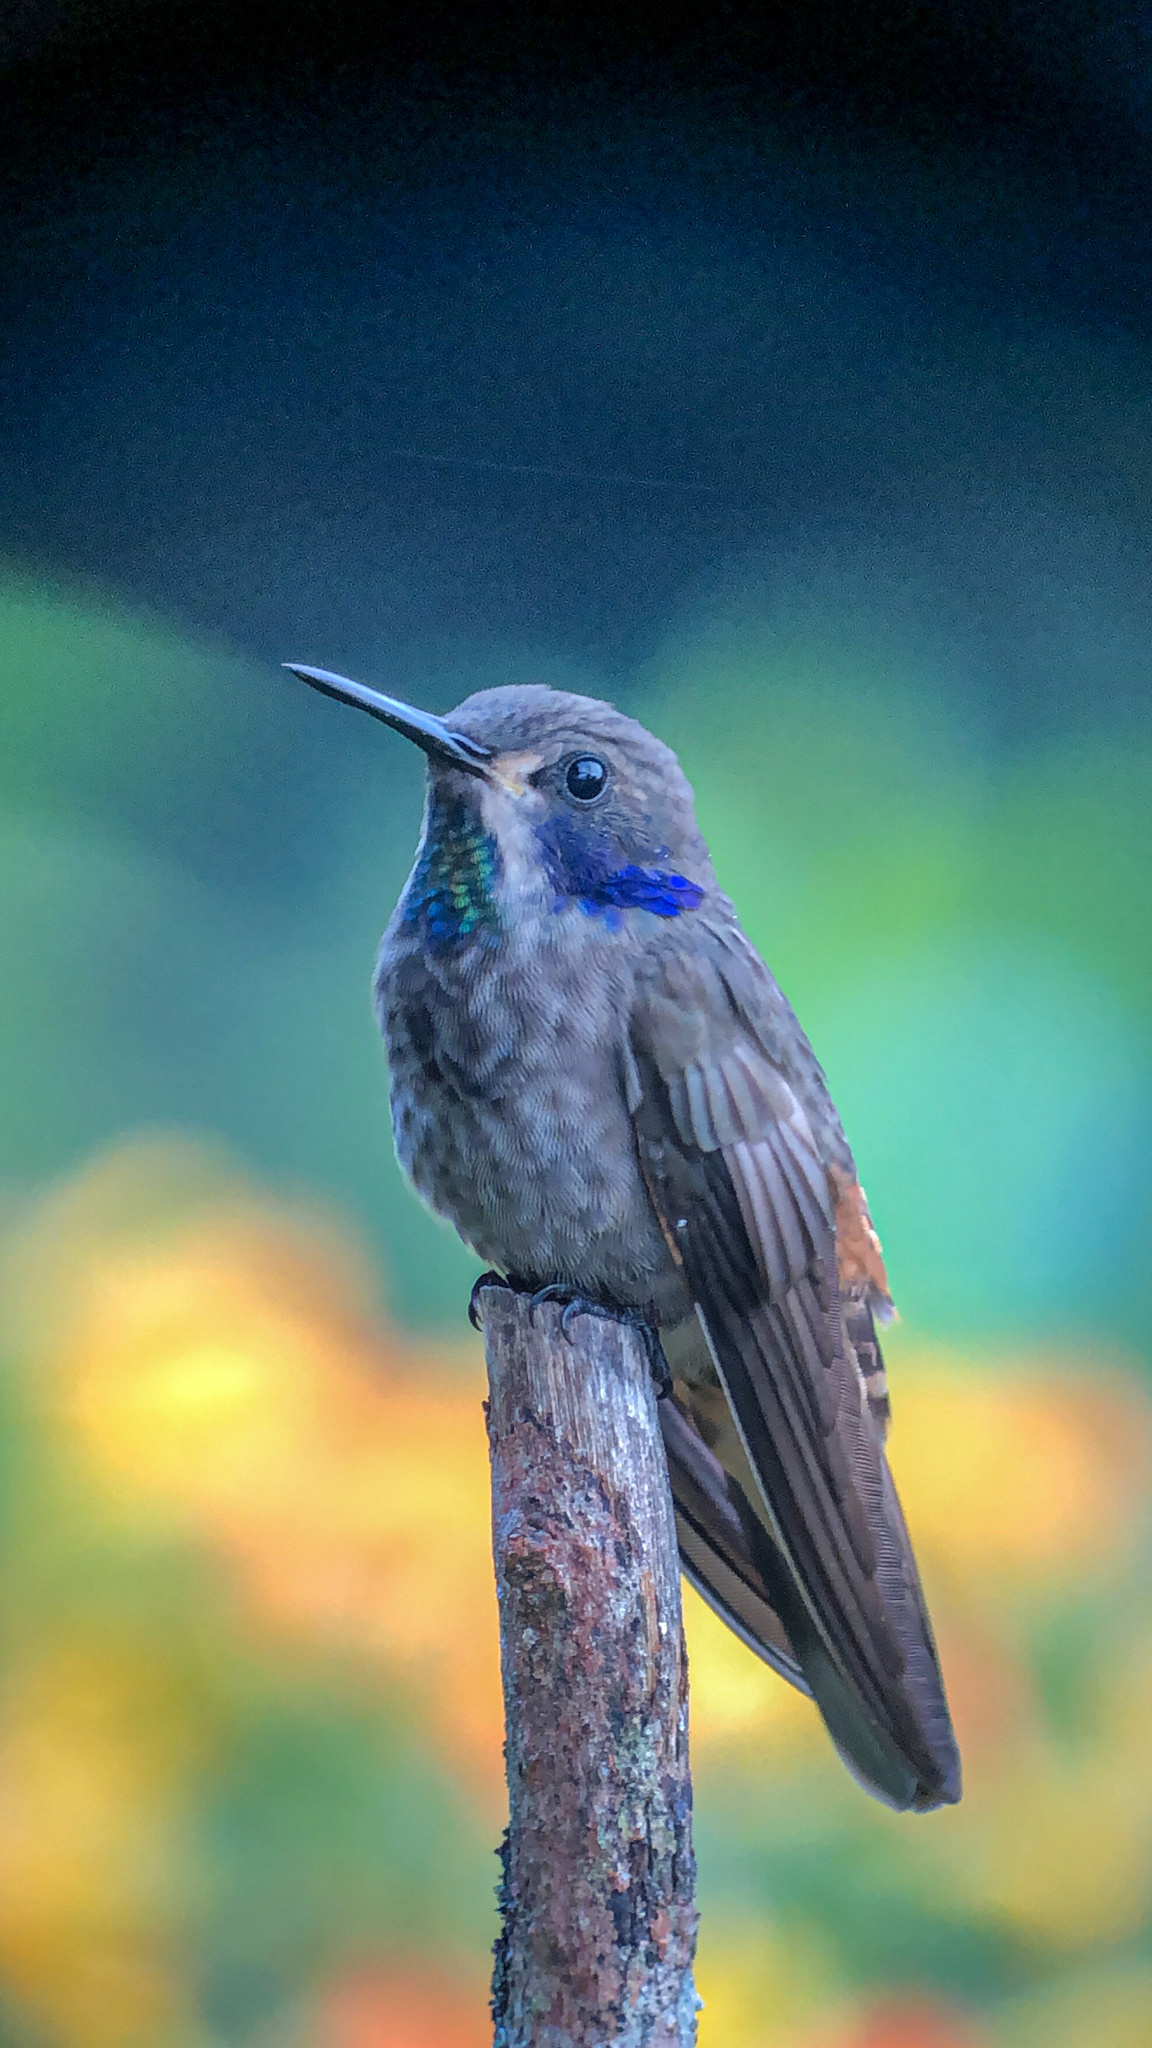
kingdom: Animalia
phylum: Chordata
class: Aves
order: Apodiformes
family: Trochilidae
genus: Colibri
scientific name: Colibri delphinae
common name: Brown violetear
